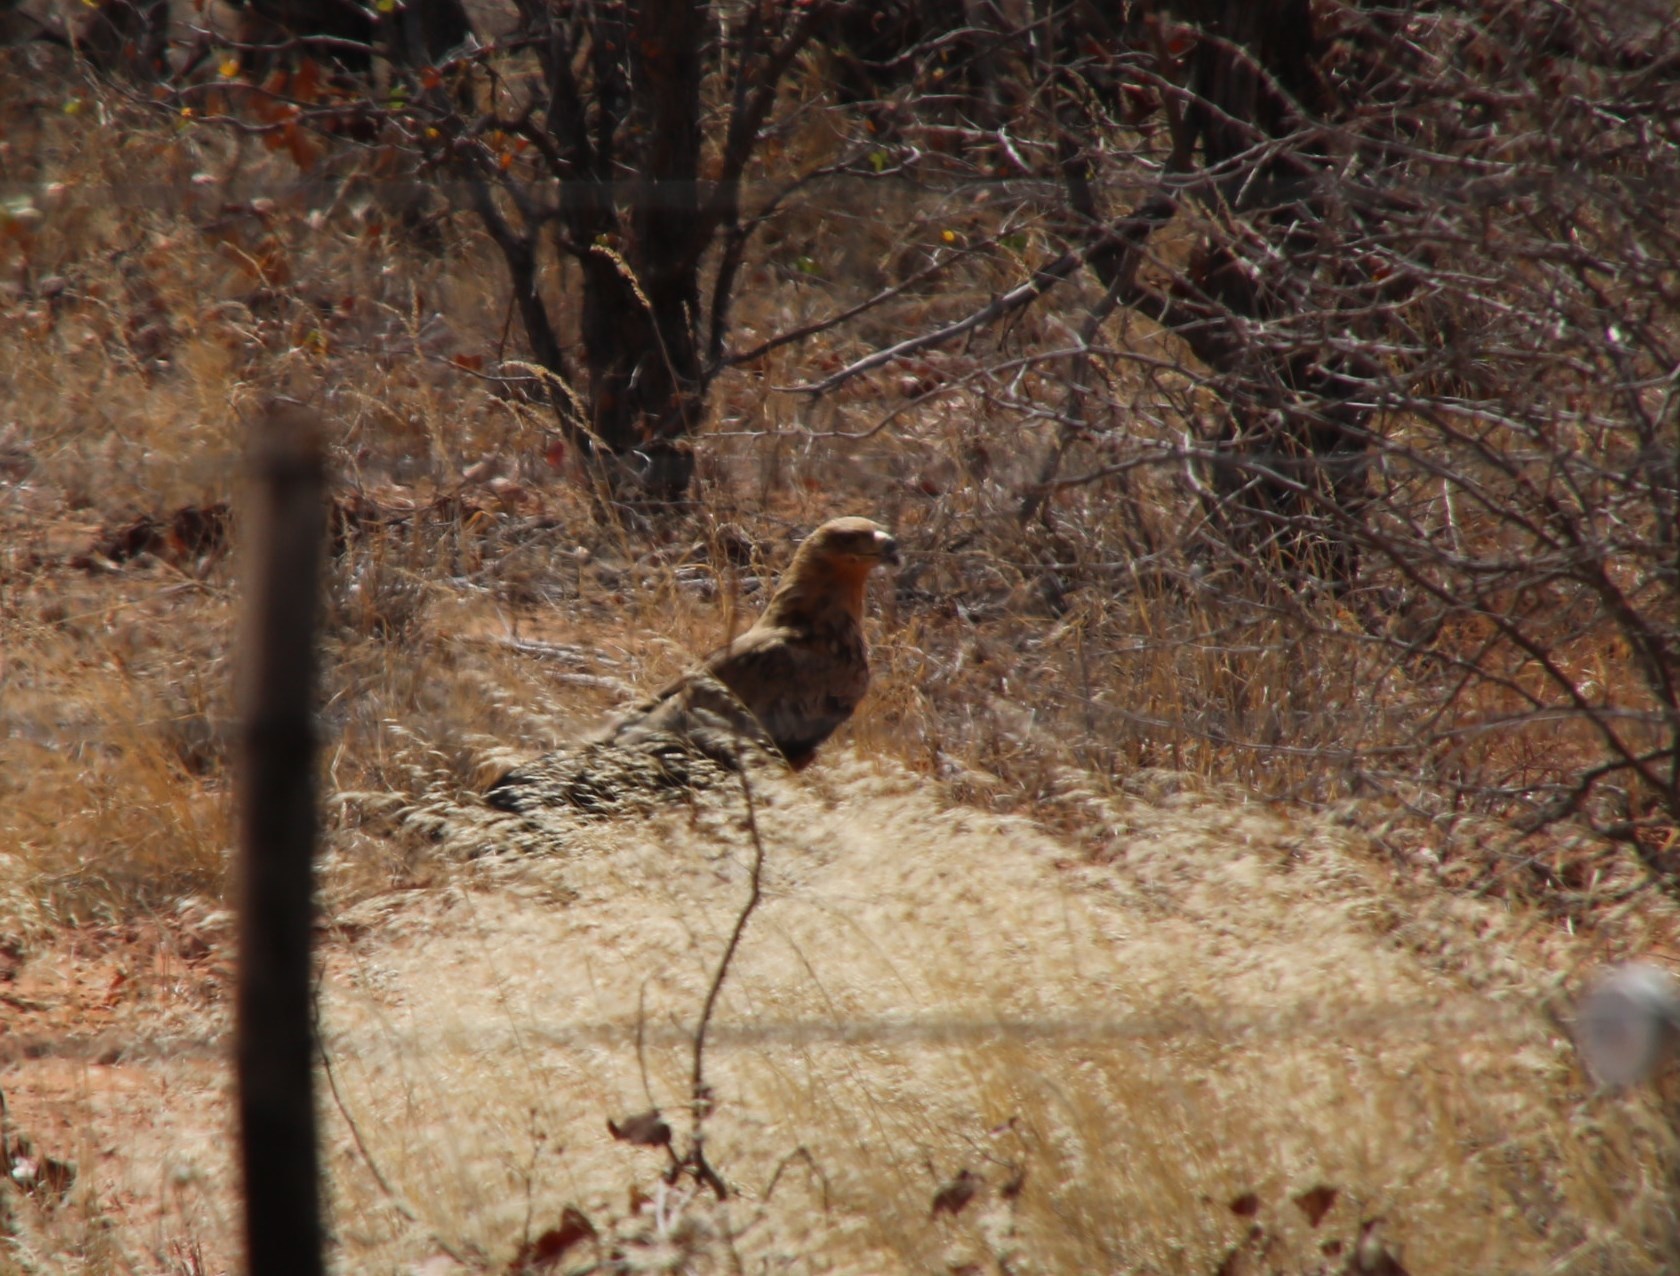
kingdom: Animalia
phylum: Chordata
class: Aves
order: Accipitriformes
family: Accipitridae
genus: Aquila
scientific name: Aquila rapax
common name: Tawny eagle
